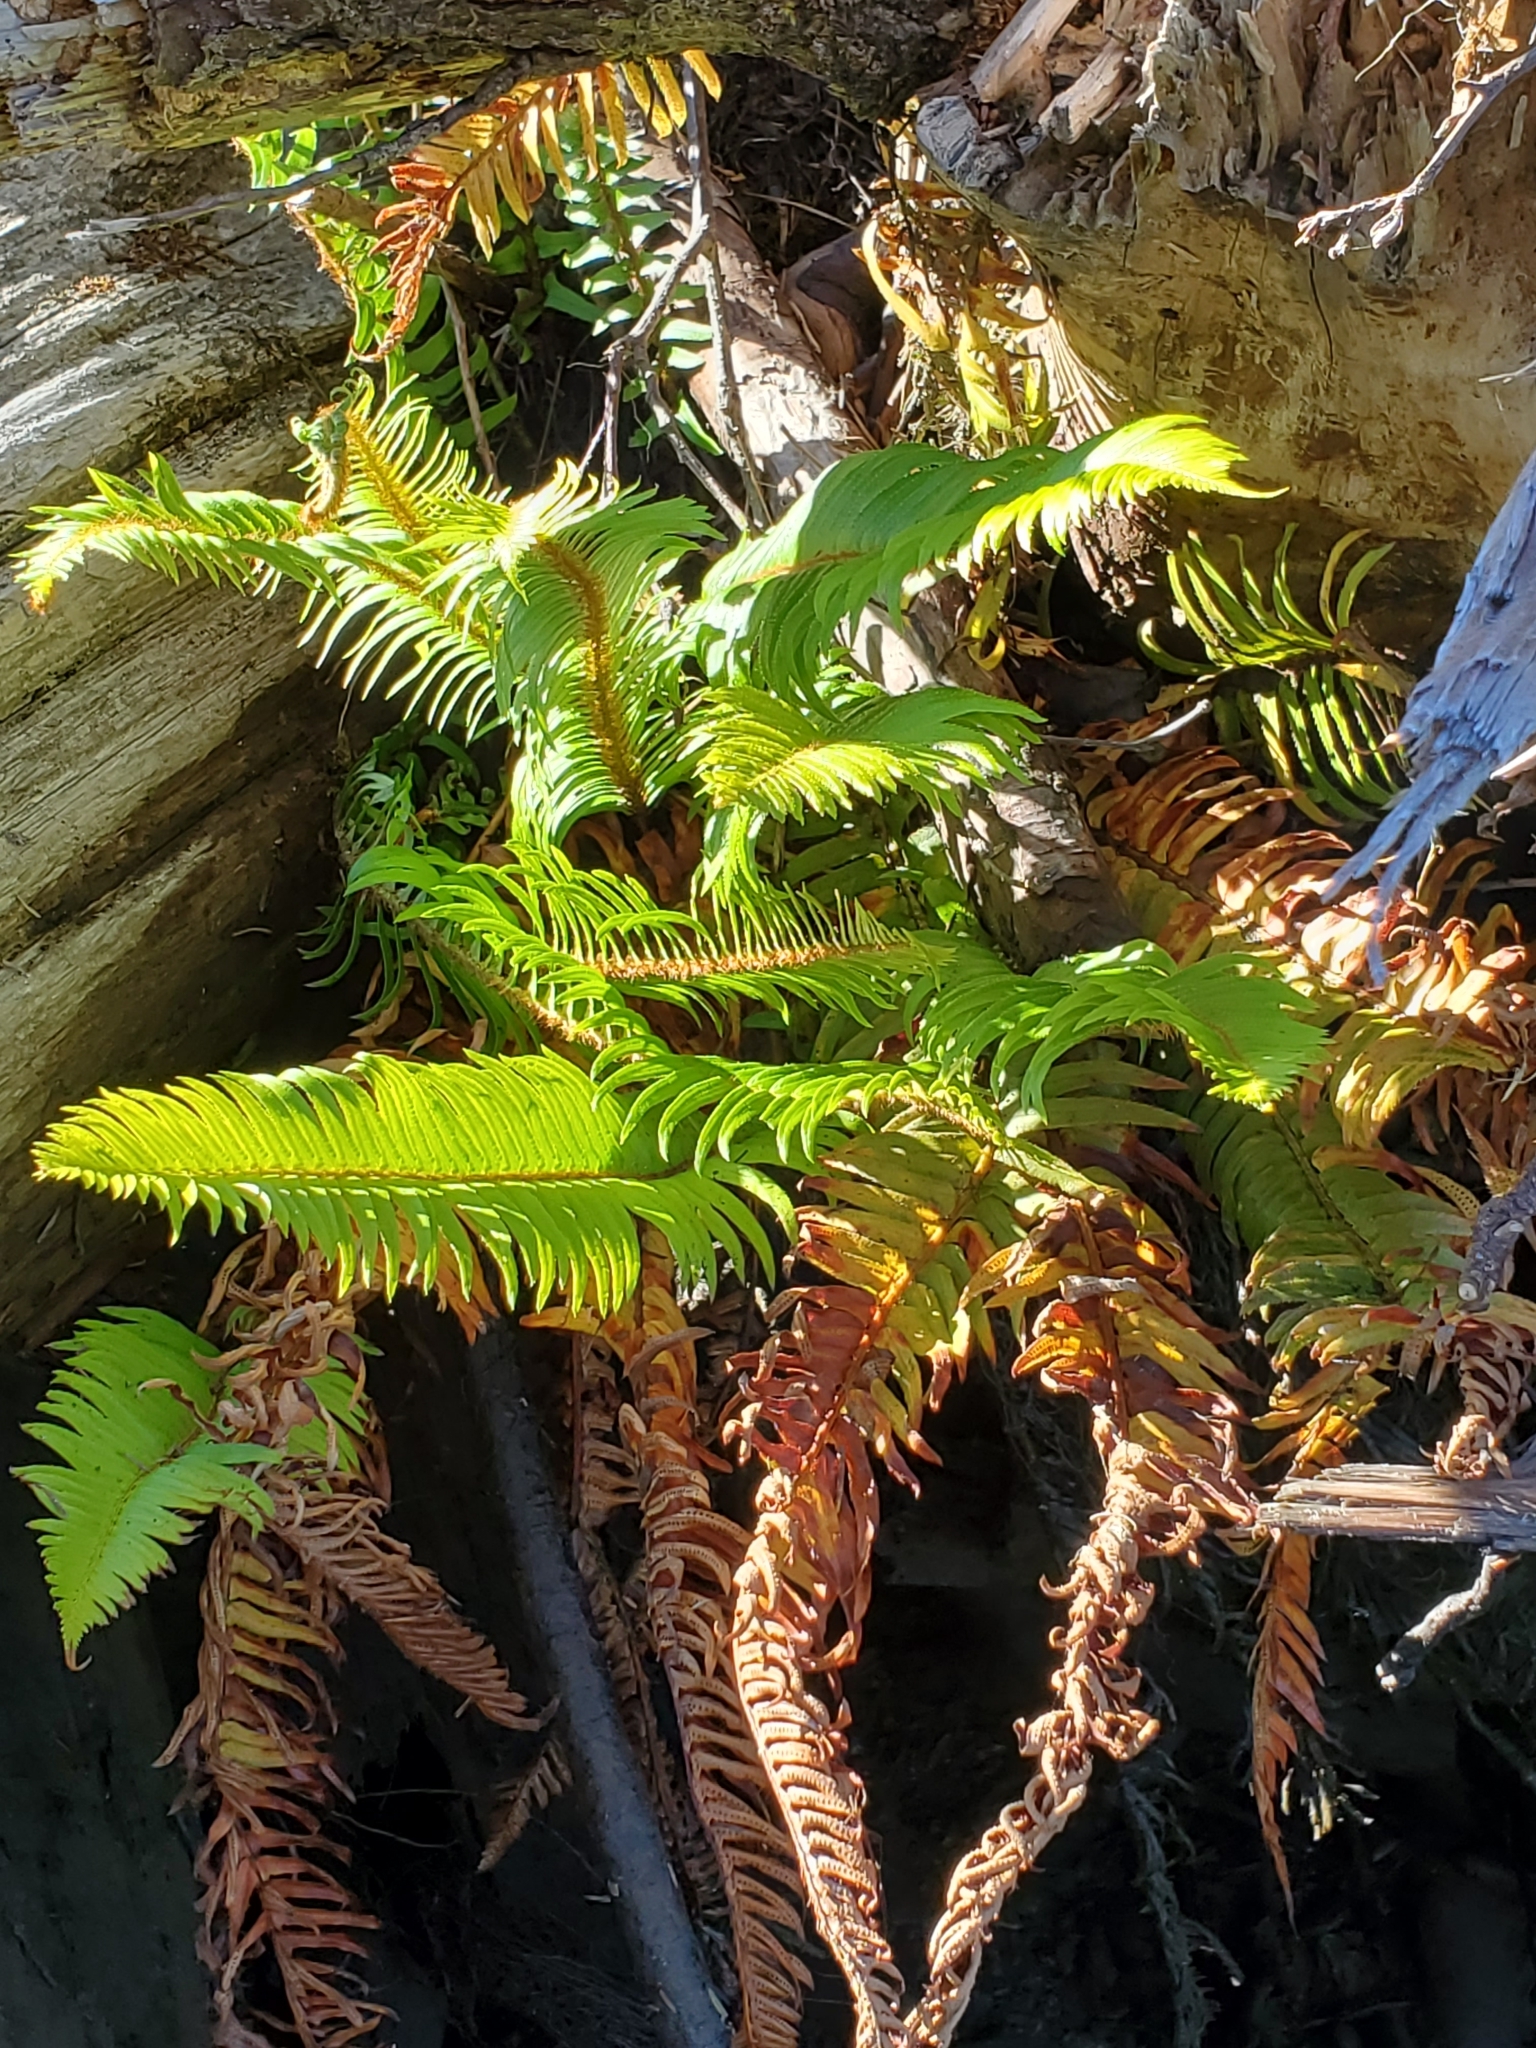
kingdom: Plantae
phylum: Tracheophyta
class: Polypodiopsida
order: Polypodiales
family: Dryopteridaceae
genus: Polystichum
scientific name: Polystichum munitum
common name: Western sword-fern
